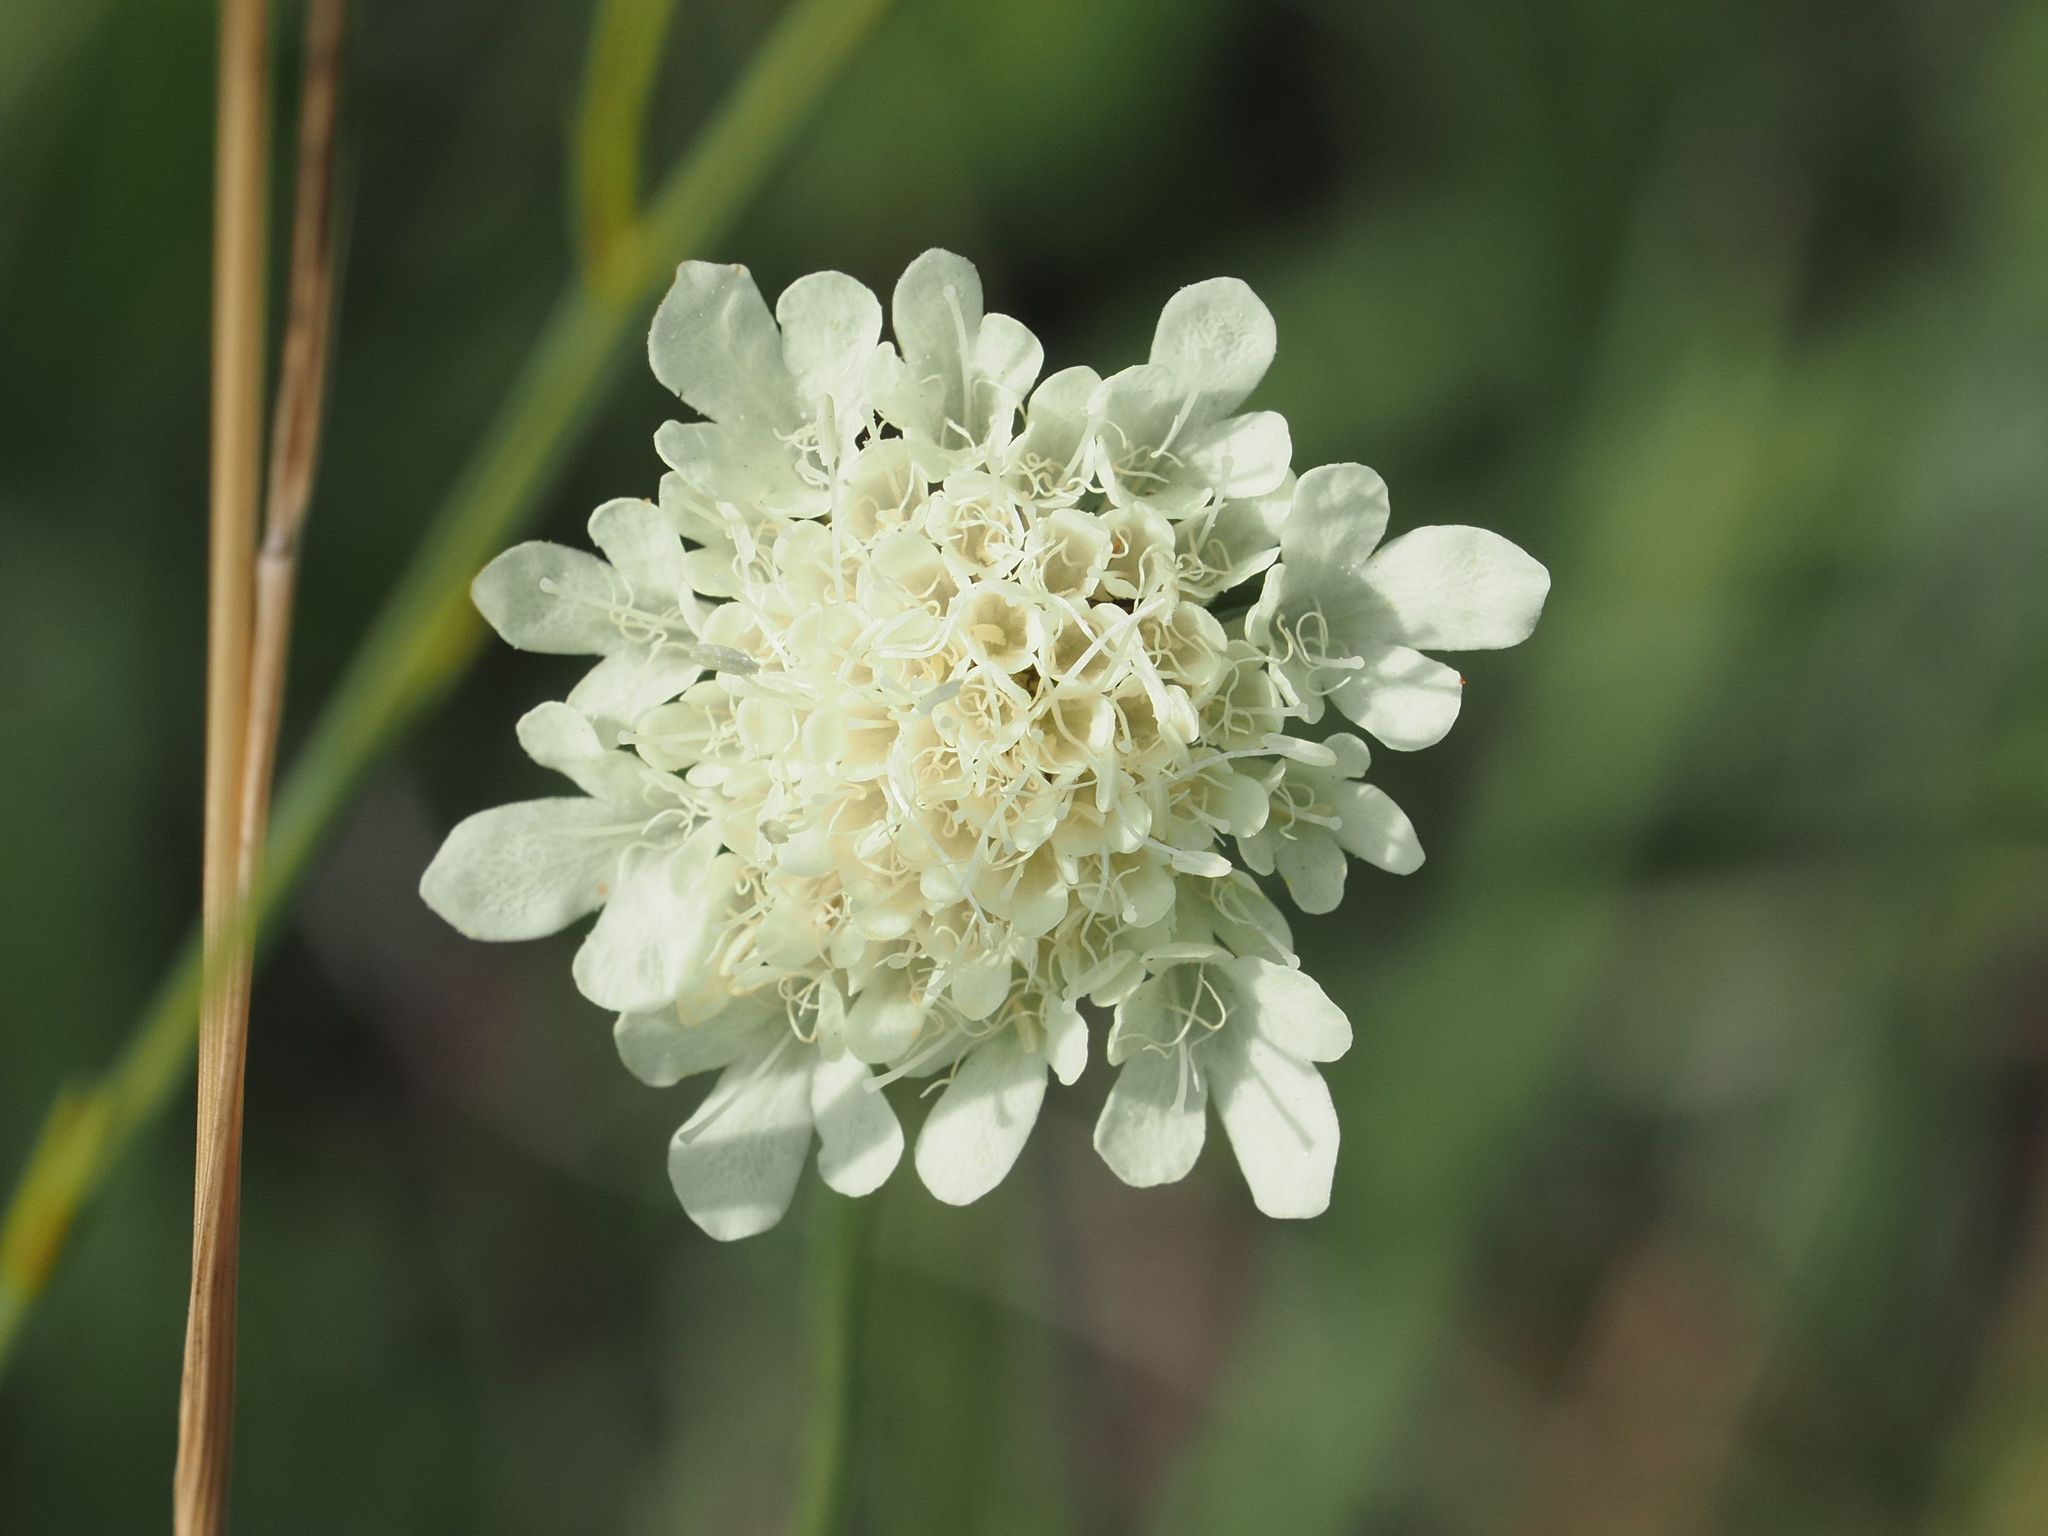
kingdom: Plantae
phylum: Tracheophyta
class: Magnoliopsida
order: Dipsacales
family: Caprifoliaceae
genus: Scabiosa
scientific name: Scabiosa ochroleuca
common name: Cream pincushions
